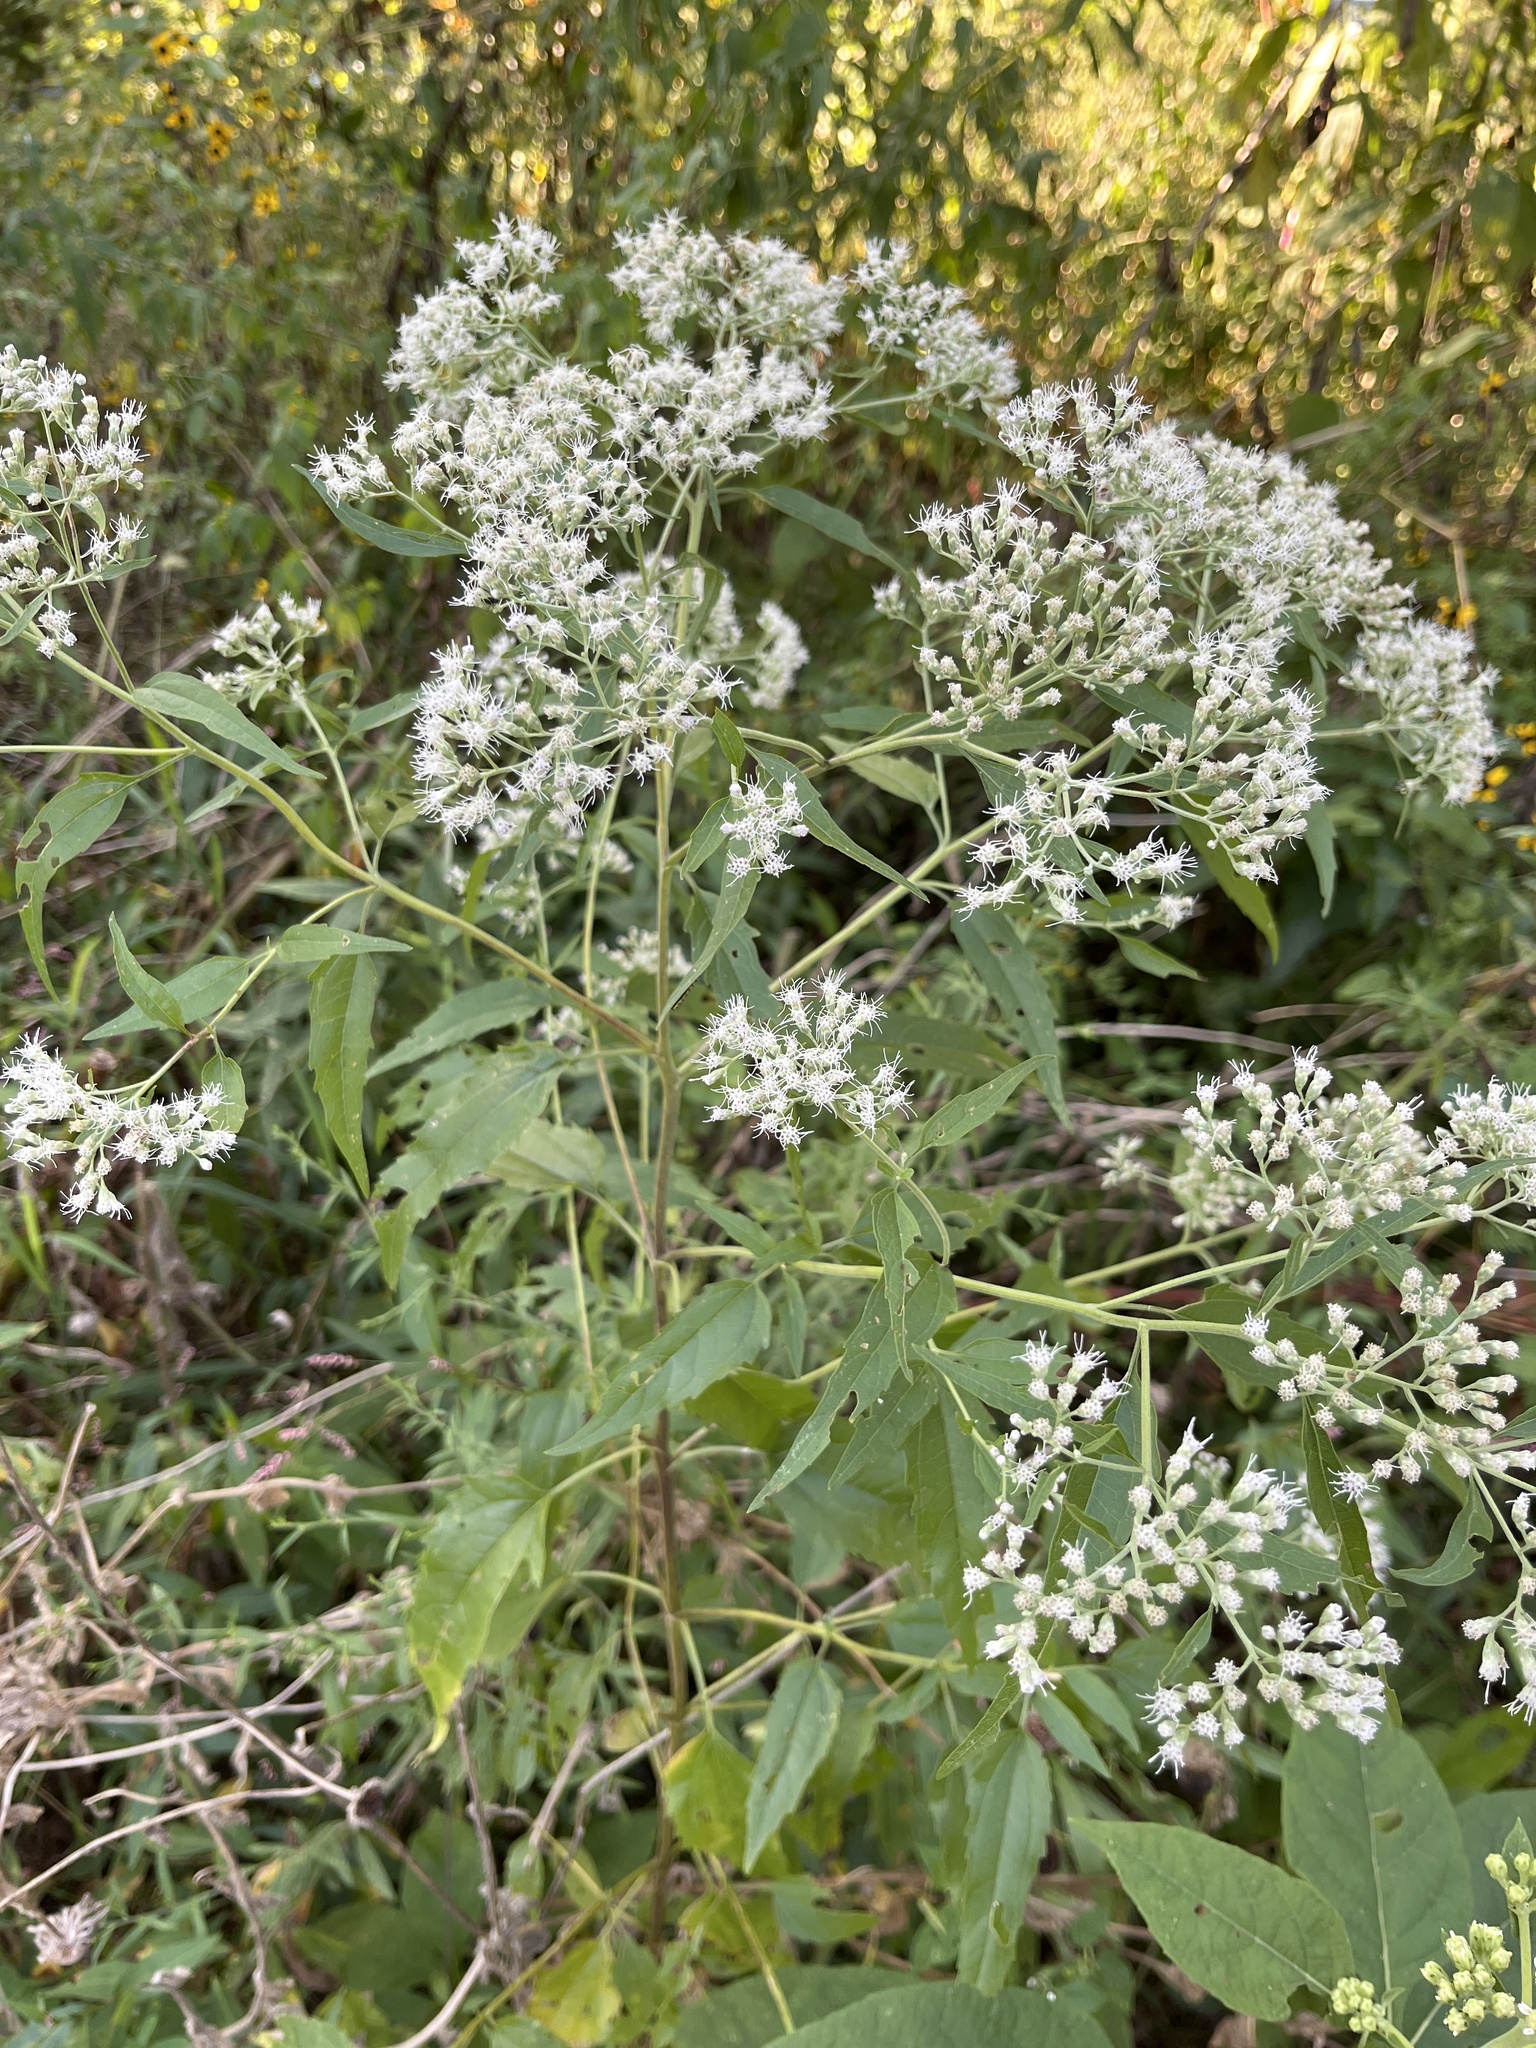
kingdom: Plantae
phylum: Tracheophyta
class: Magnoliopsida
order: Asterales
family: Asteraceae
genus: Eupatorium
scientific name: Eupatorium serotinum
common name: Late boneset
